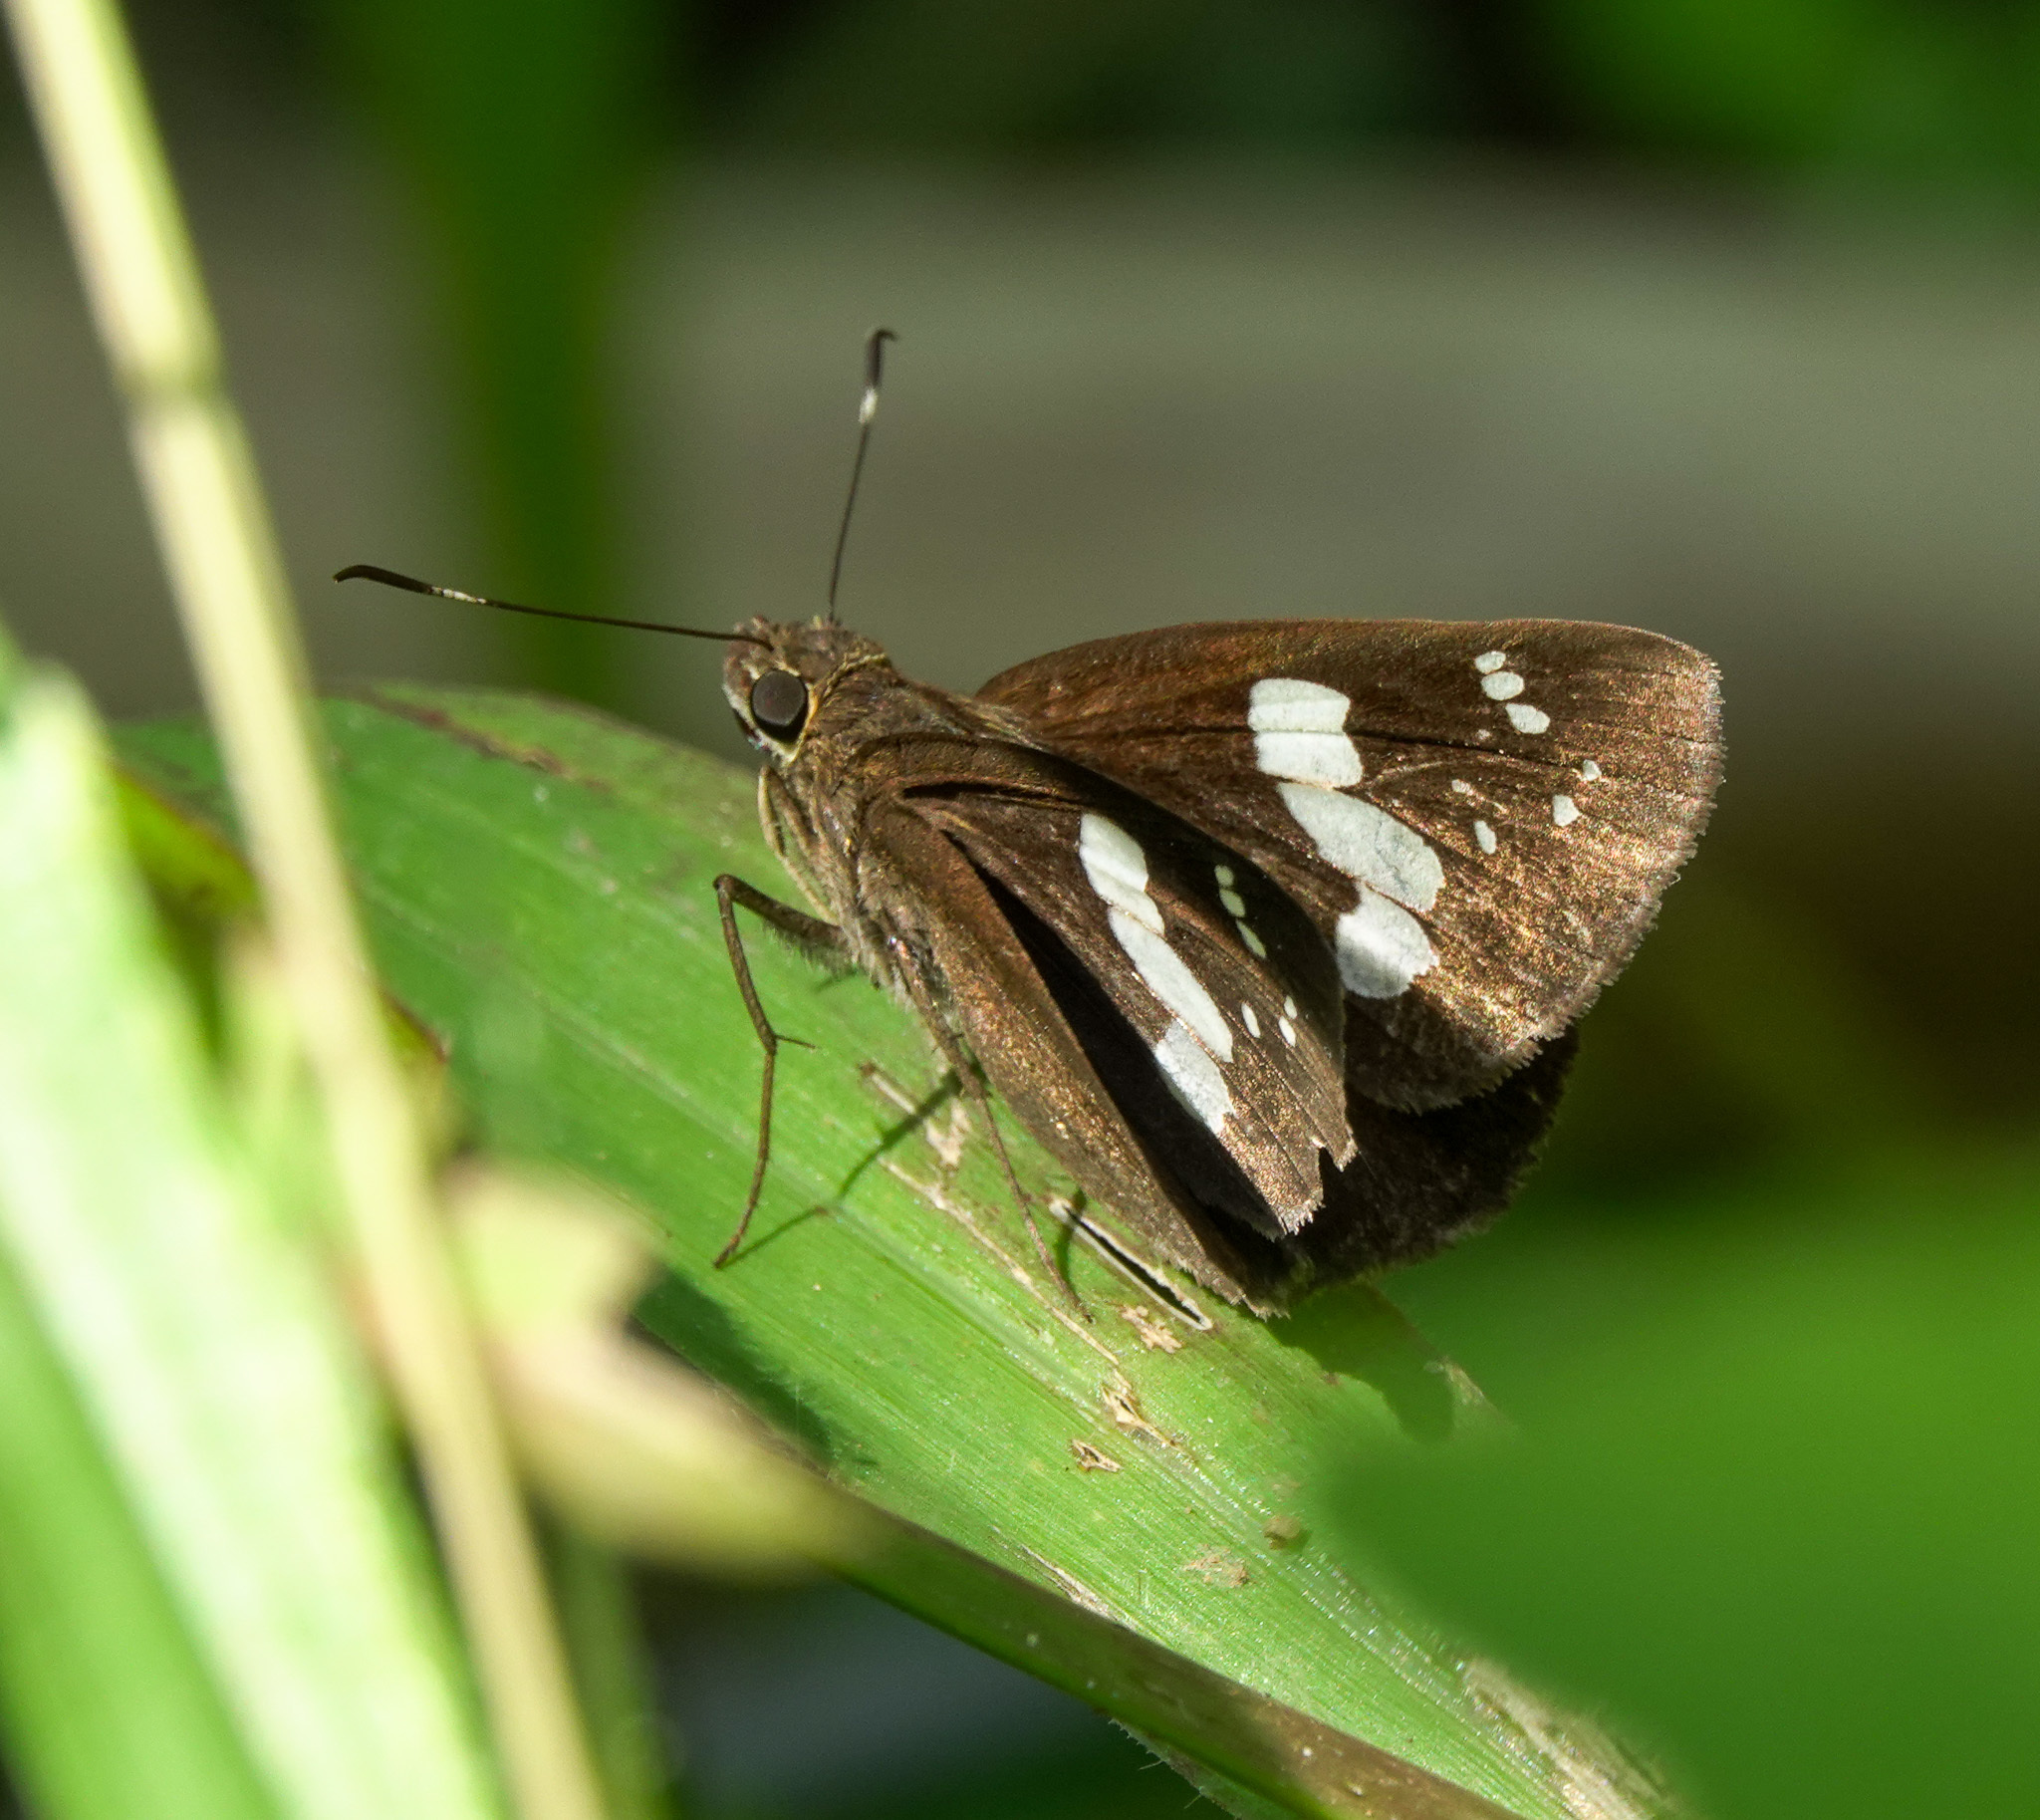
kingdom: Animalia
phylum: Arthropoda
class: Insecta
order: Lepidoptera
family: Hesperiidae
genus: Notocrypta
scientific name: Notocrypta curvifascia
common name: Restricted demon
